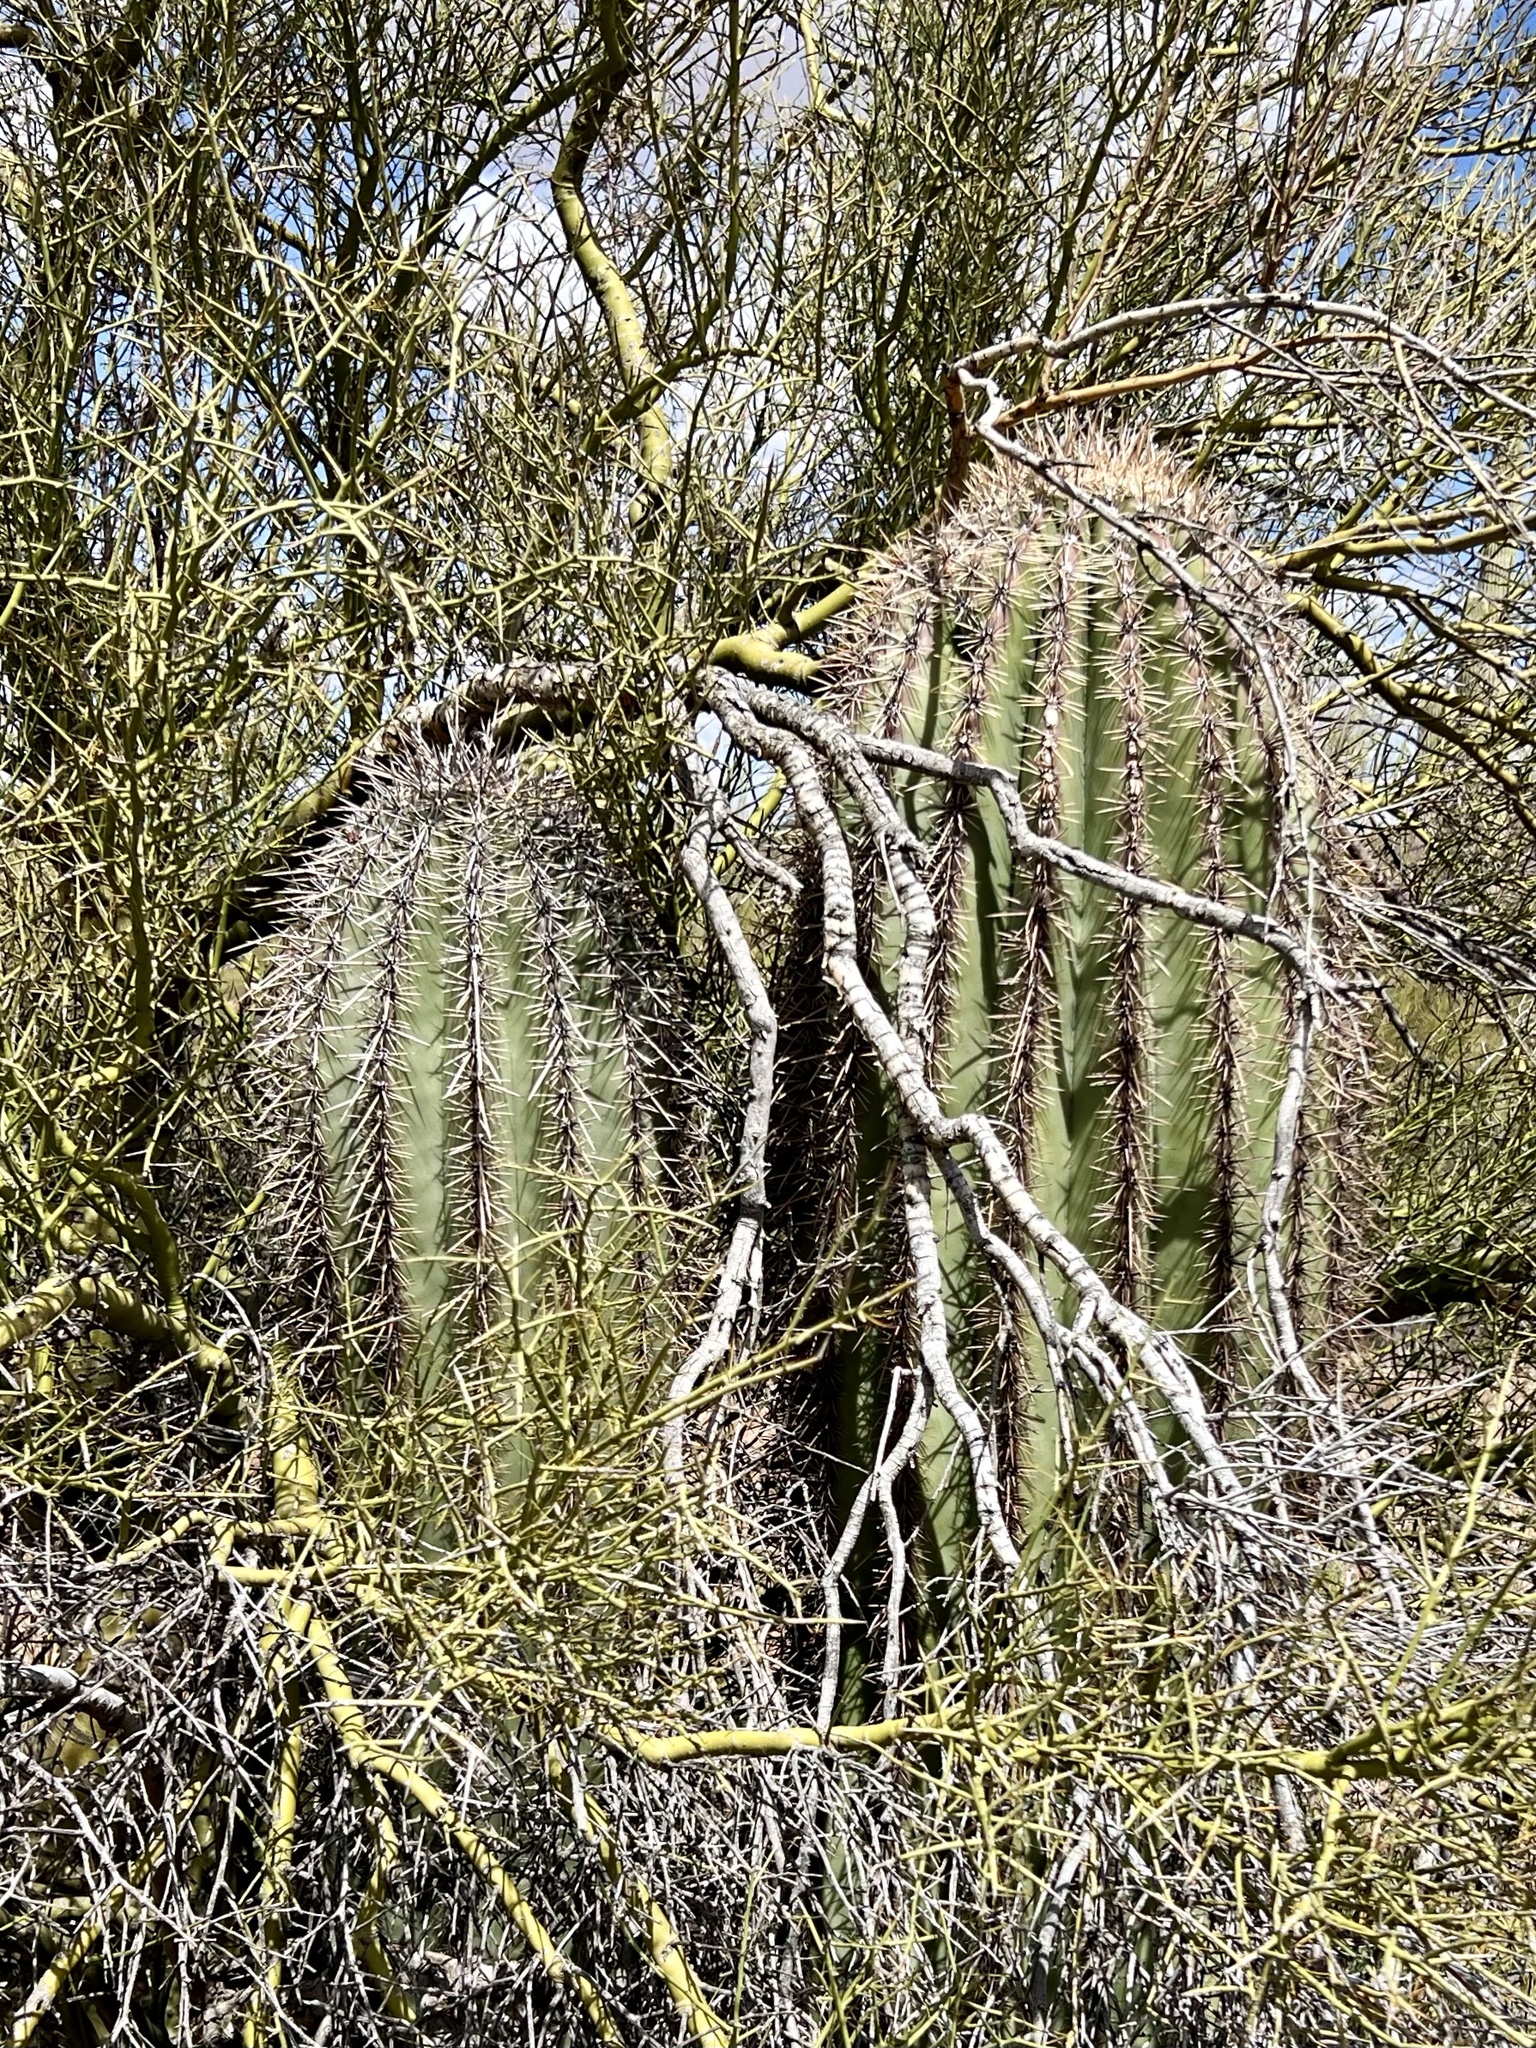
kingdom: Plantae
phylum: Tracheophyta
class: Magnoliopsida
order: Caryophyllales
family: Cactaceae
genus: Carnegiea
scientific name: Carnegiea gigantea
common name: Saguaro
